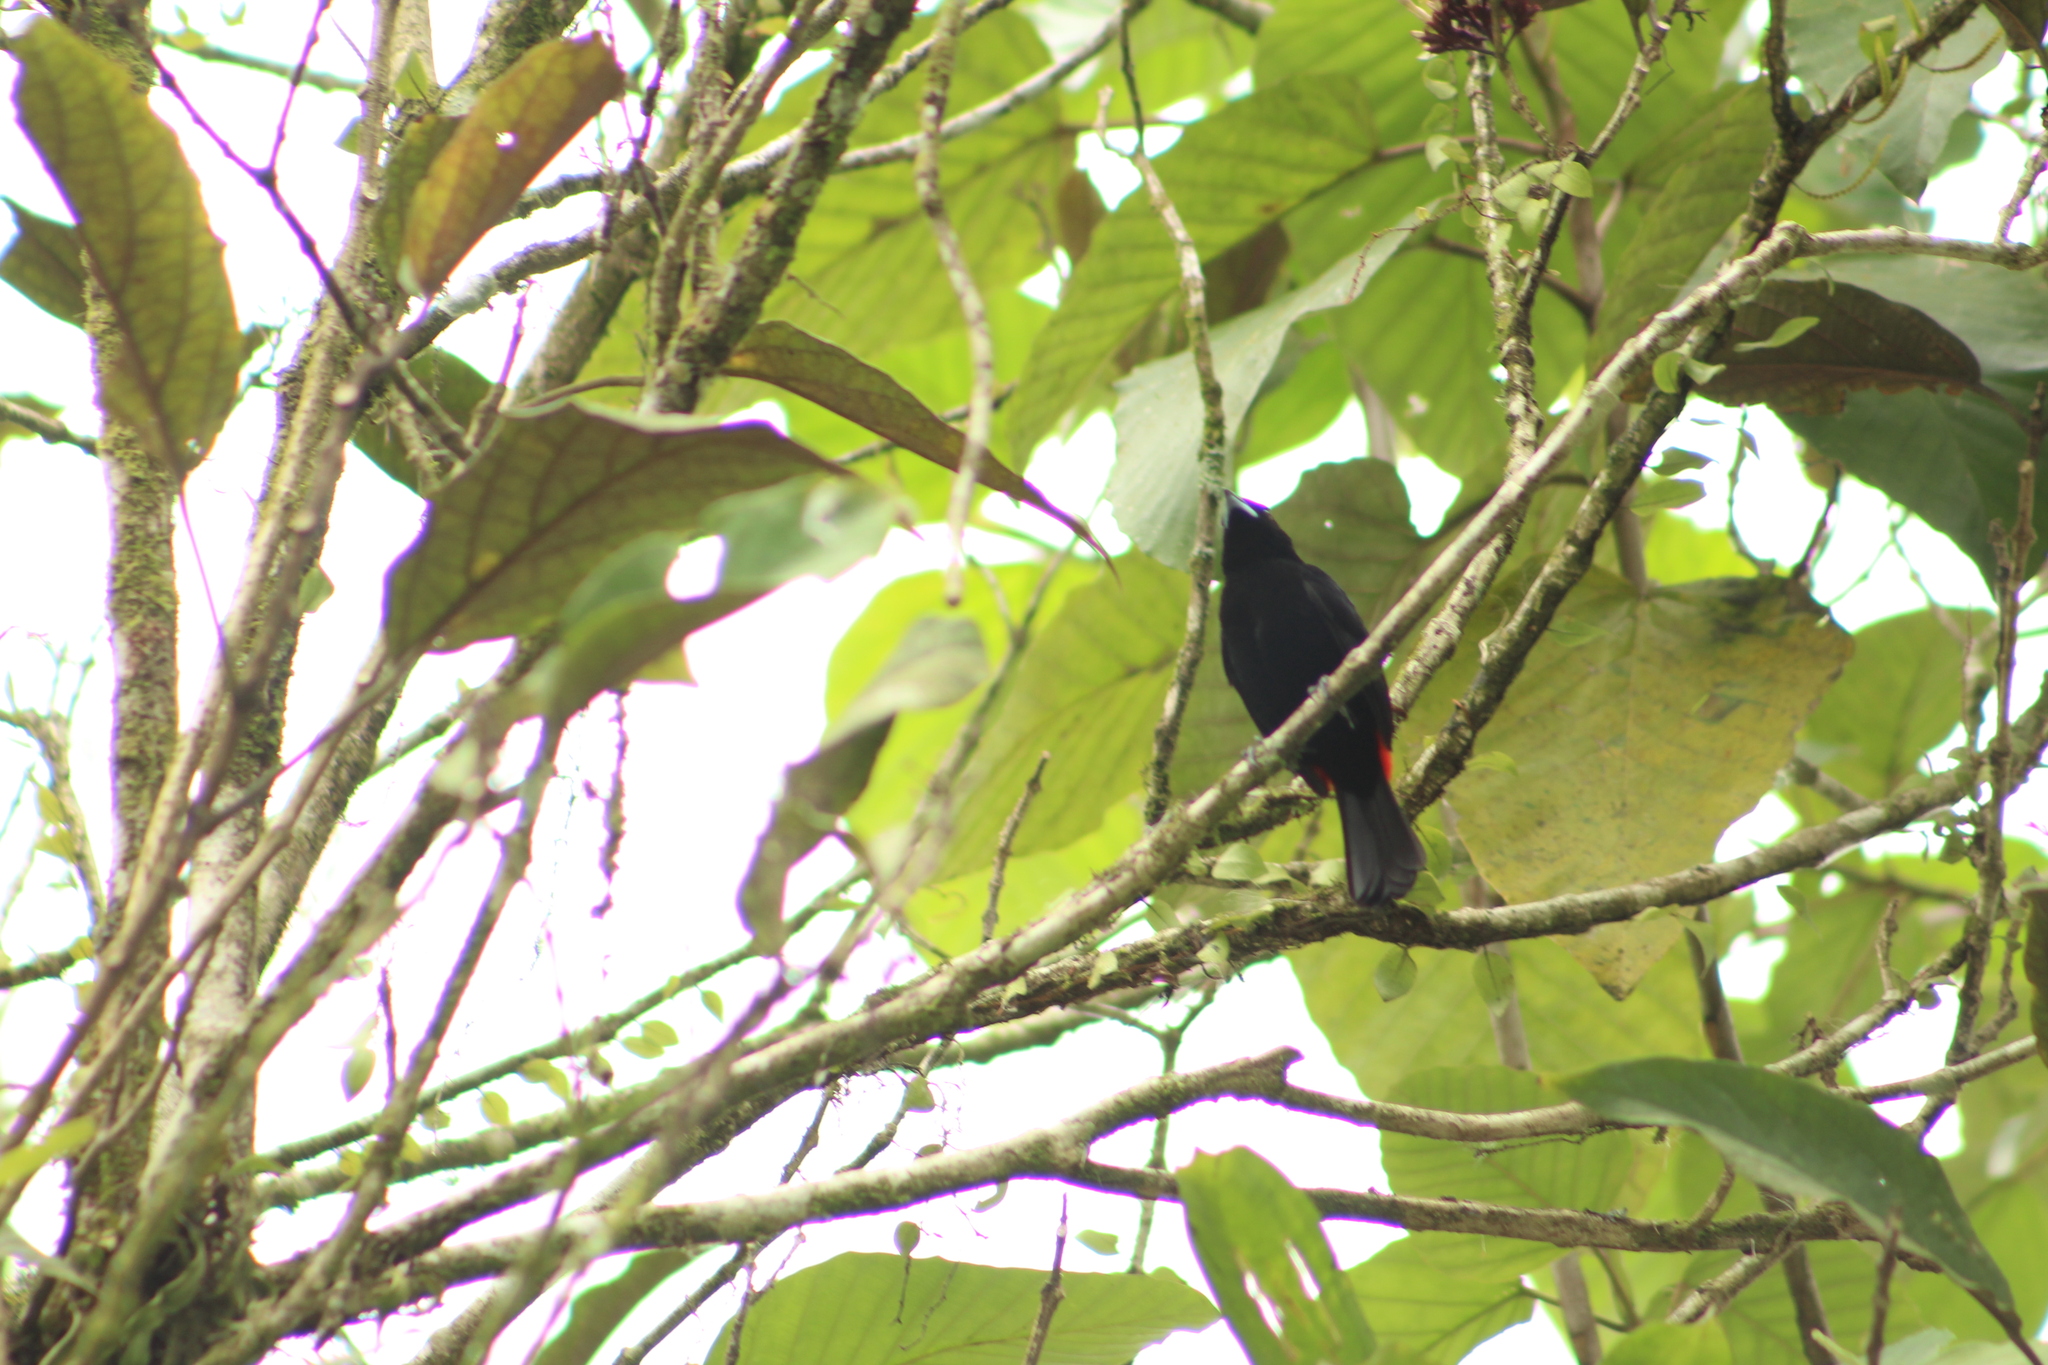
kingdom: Animalia
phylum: Chordata
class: Aves
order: Passeriformes
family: Thraupidae
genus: Ramphocelus
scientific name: Ramphocelus passerinii
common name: Passerini's tanager
